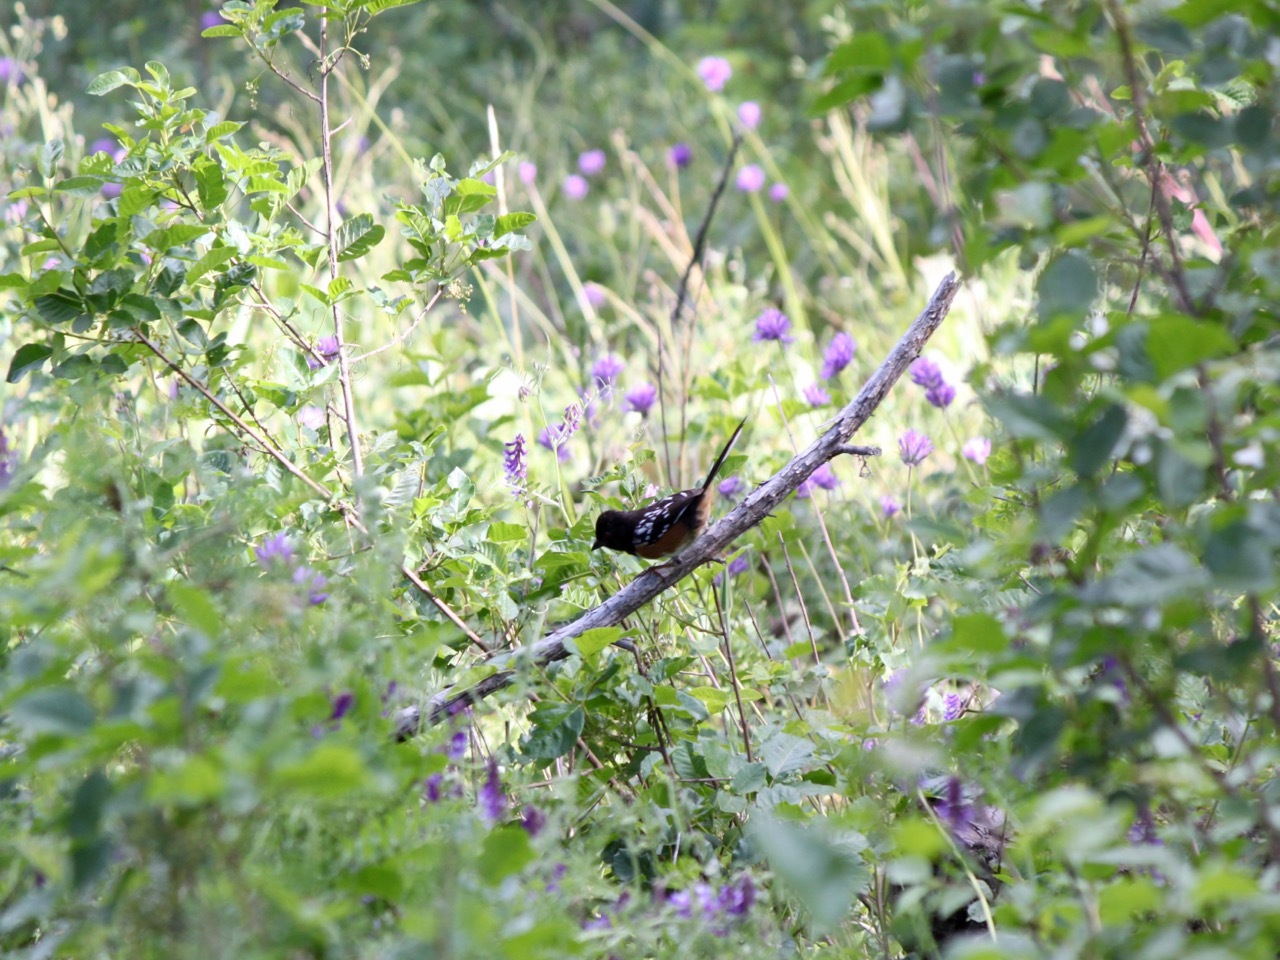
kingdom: Animalia
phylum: Chordata
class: Aves
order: Passeriformes
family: Passerellidae
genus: Pipilo
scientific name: Pipilo maculatus
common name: Spotted towhee
